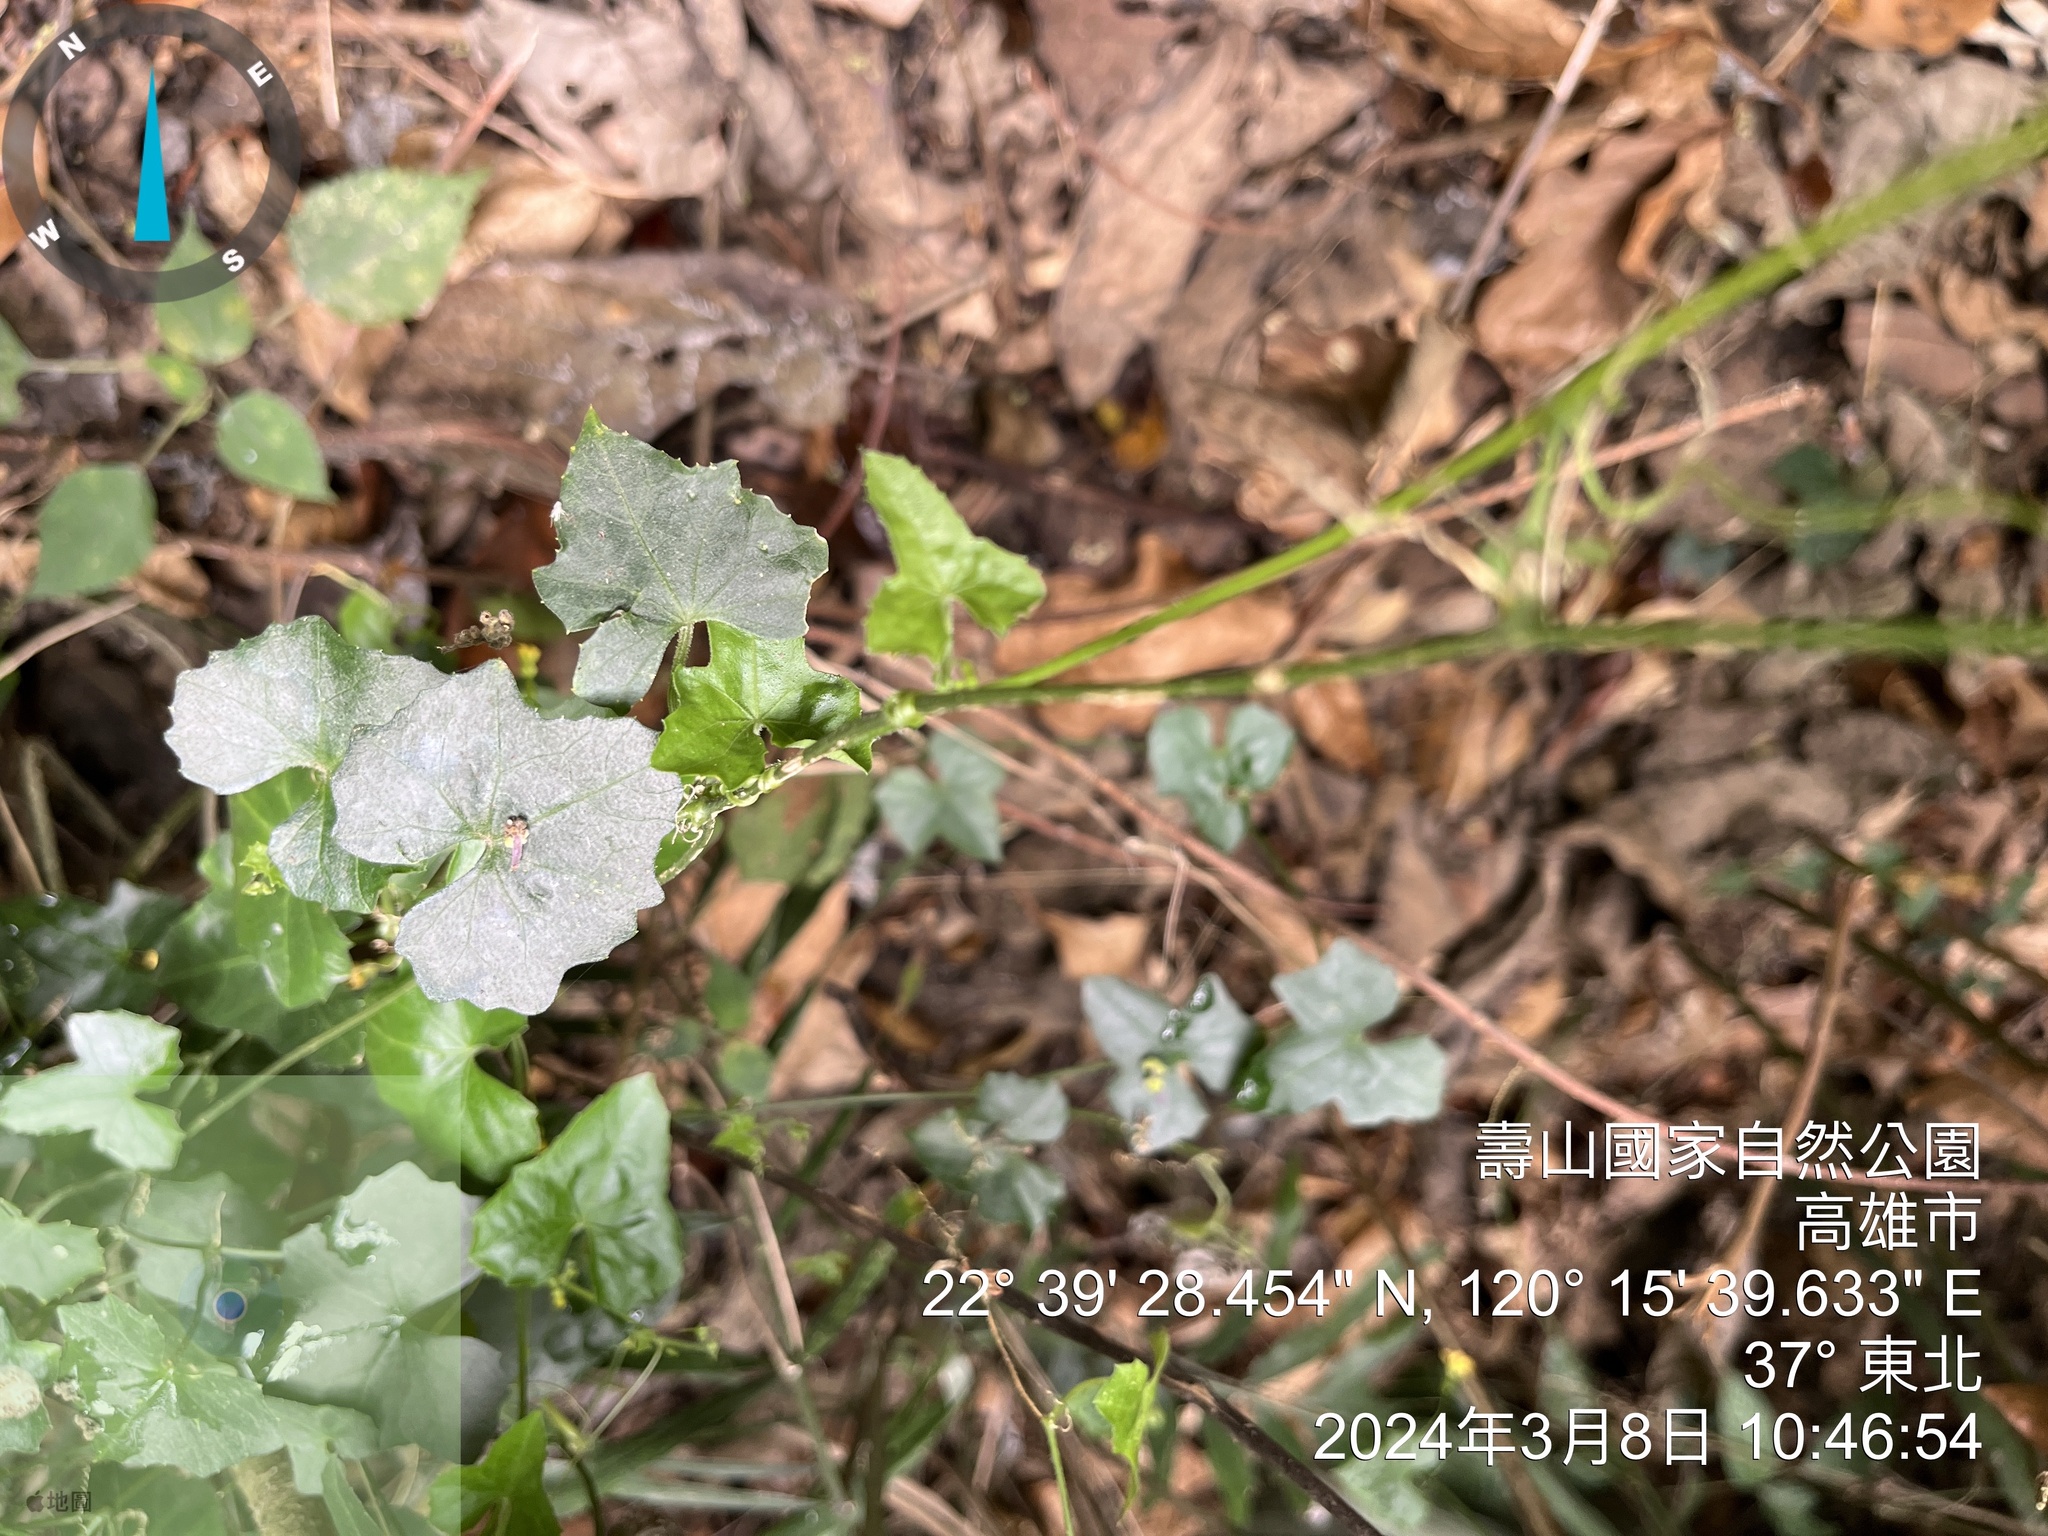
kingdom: Plantae
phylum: Tracheophyta
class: Magnoliopsida
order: Cucurbitales
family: Cucurbitaceae
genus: Melothria
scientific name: Melothria pendula
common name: Creeping-cucumber
